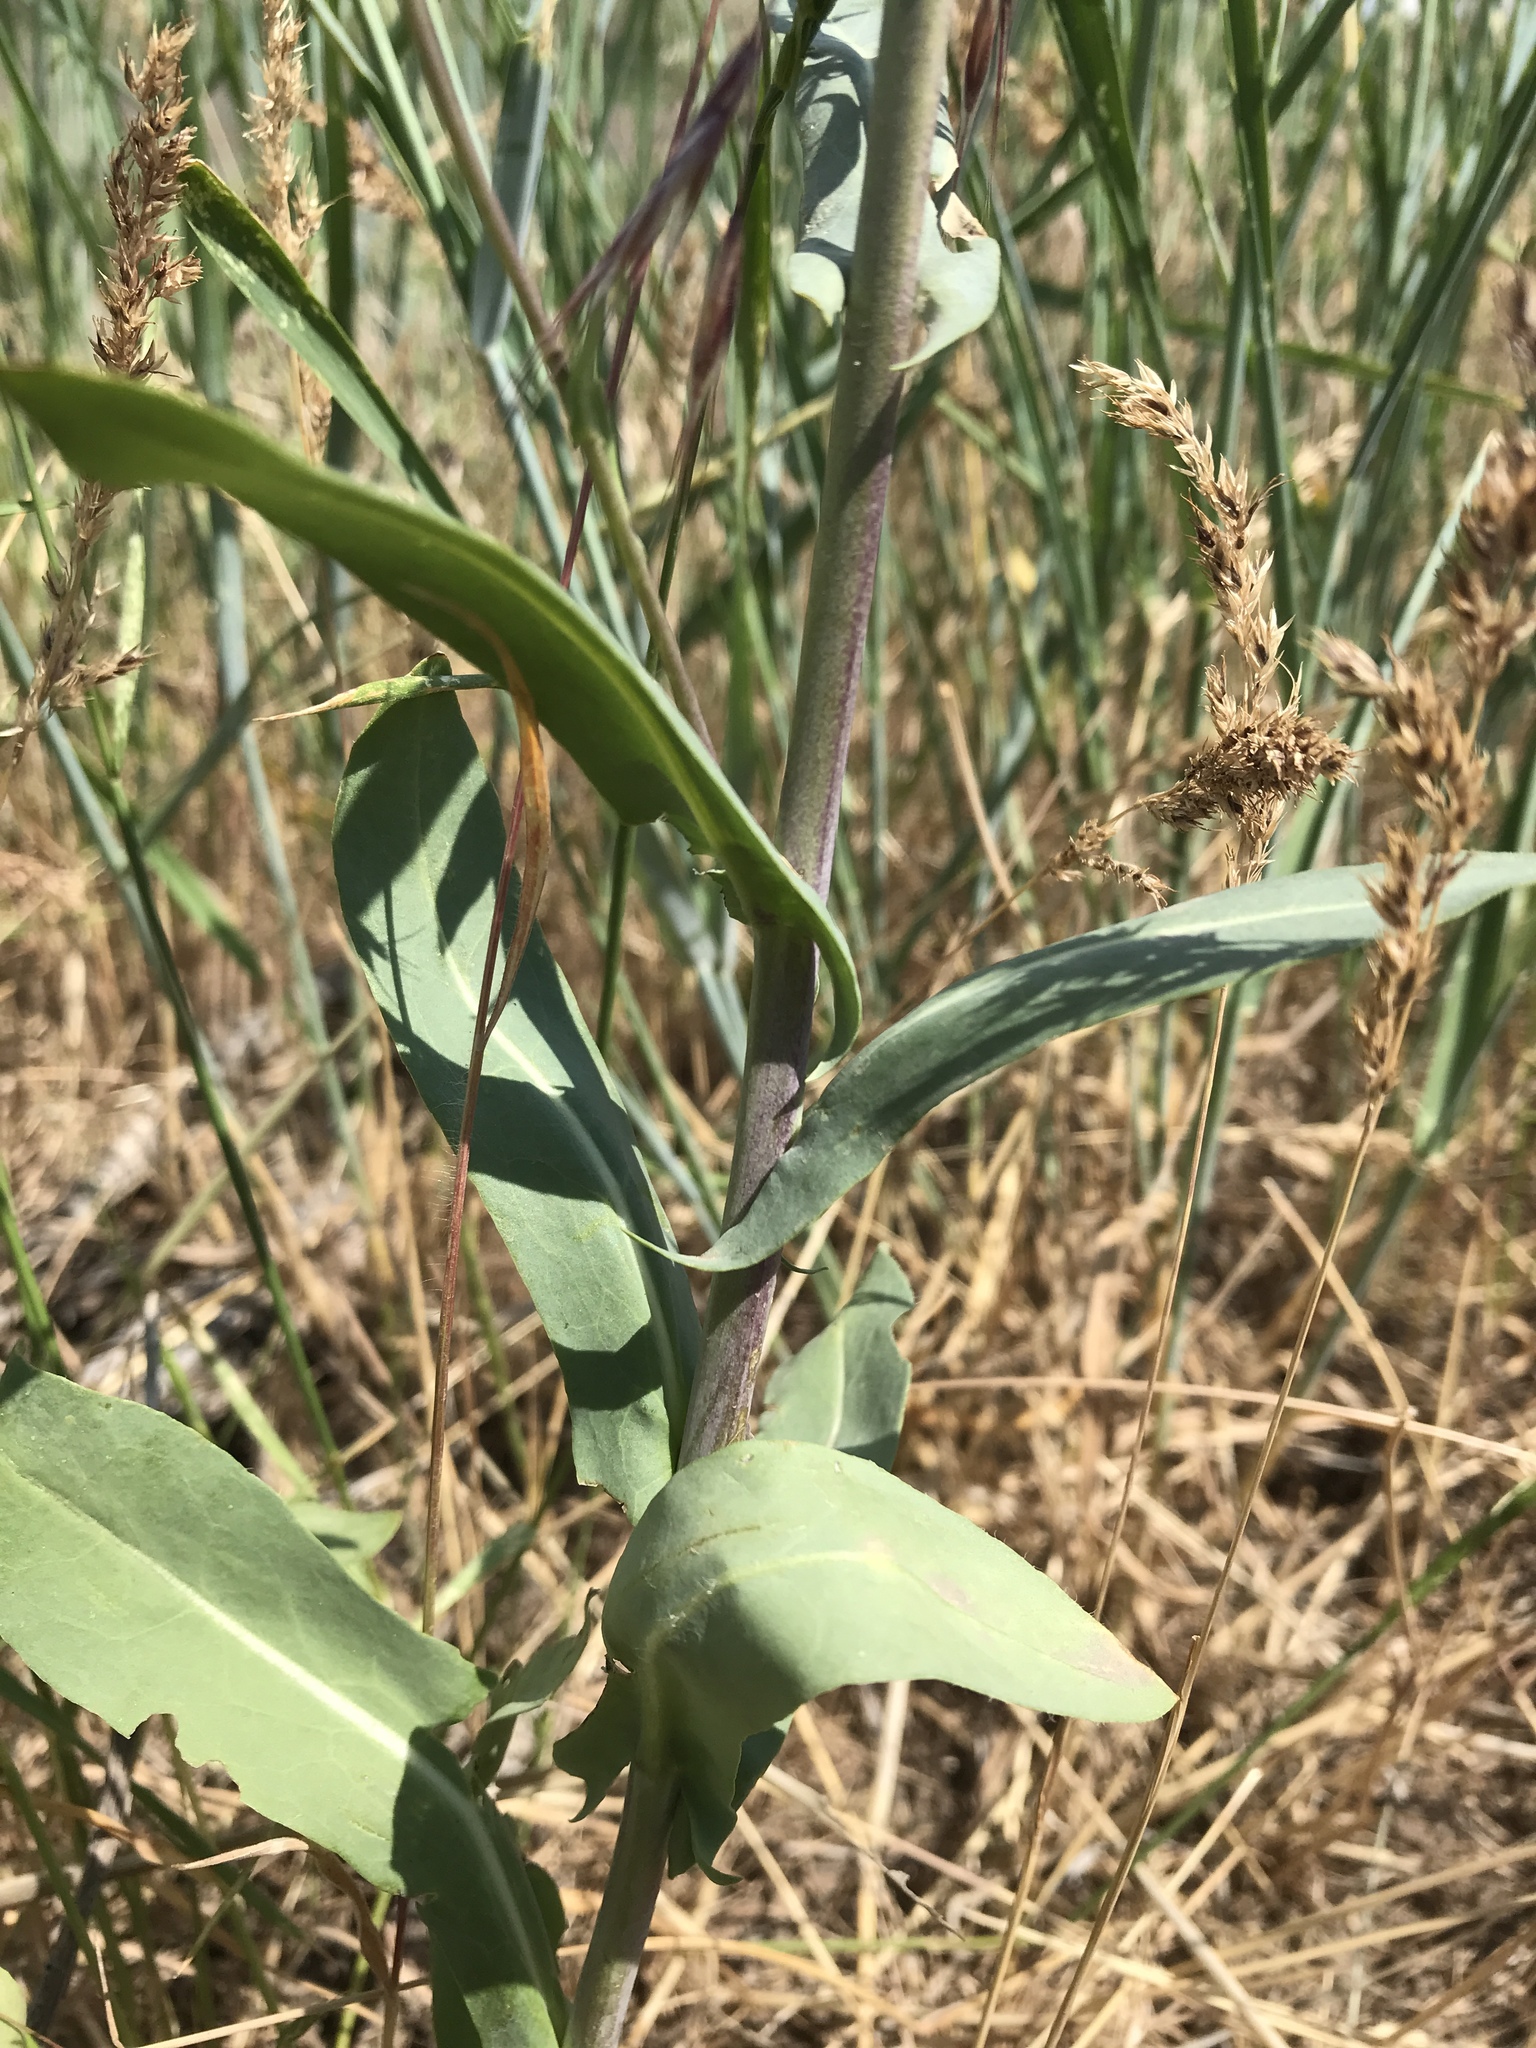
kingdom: Plantae
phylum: Tracheophyta
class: Magnoliopsida
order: Brassicales
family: Brassicaceae
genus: Isatis
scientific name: Isatis tinctoria
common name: Woad
